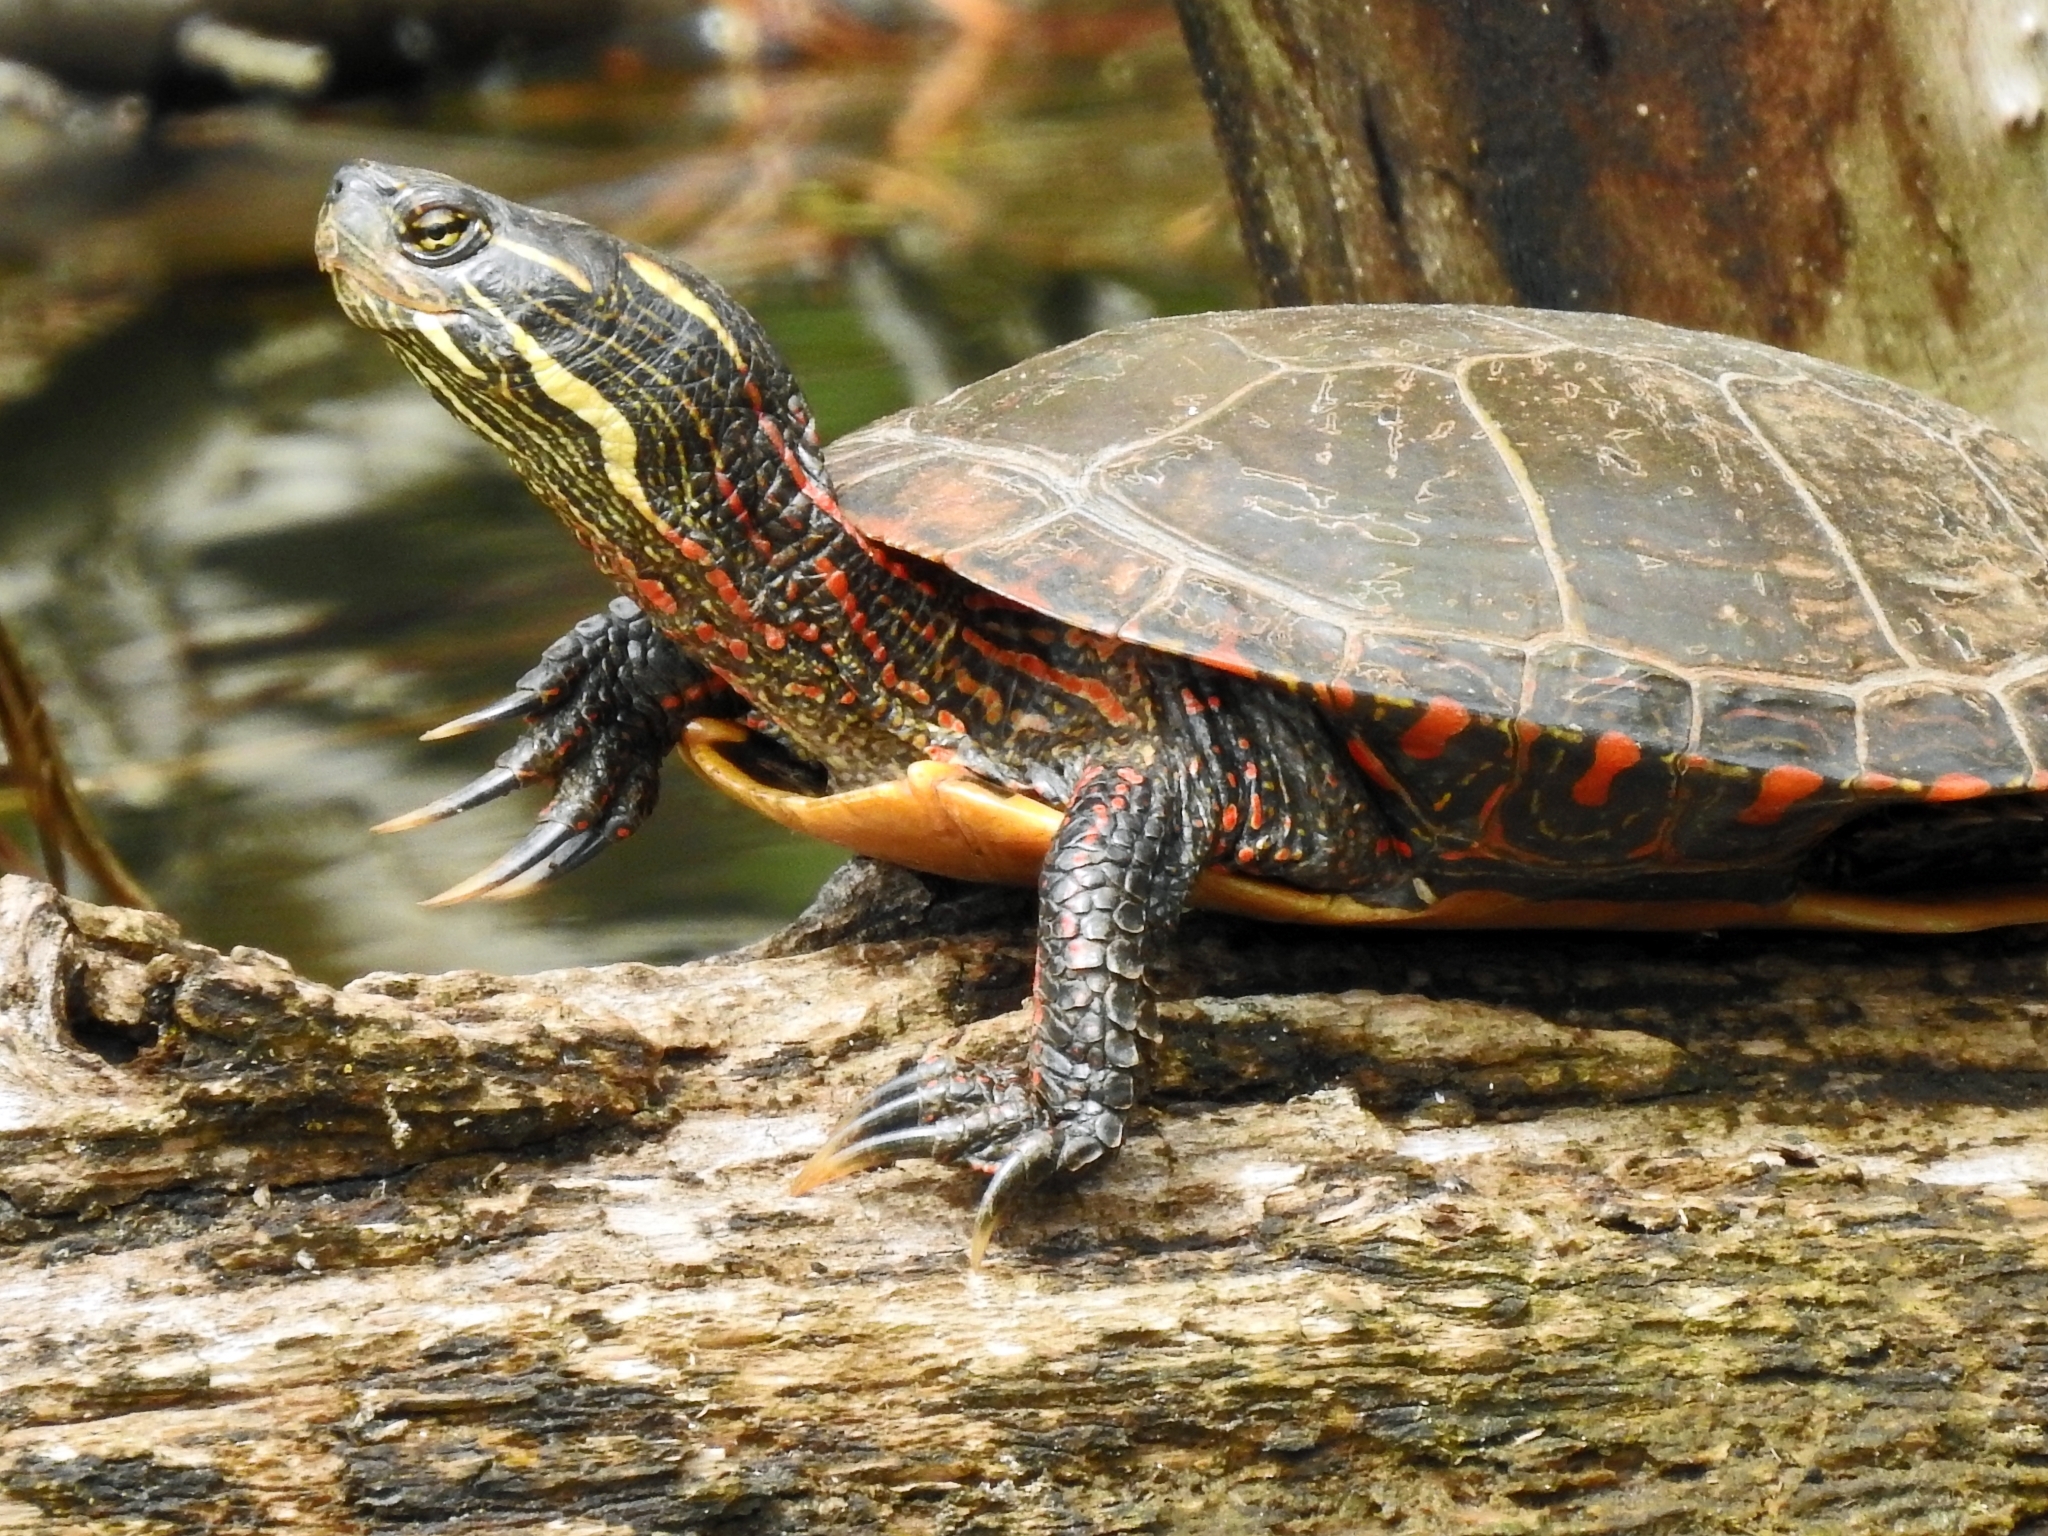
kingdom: Animalia
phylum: Chordata
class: Testudines
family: Emydidae
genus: Chrysemys
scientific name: Chrysemys picta
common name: Painted turtle
